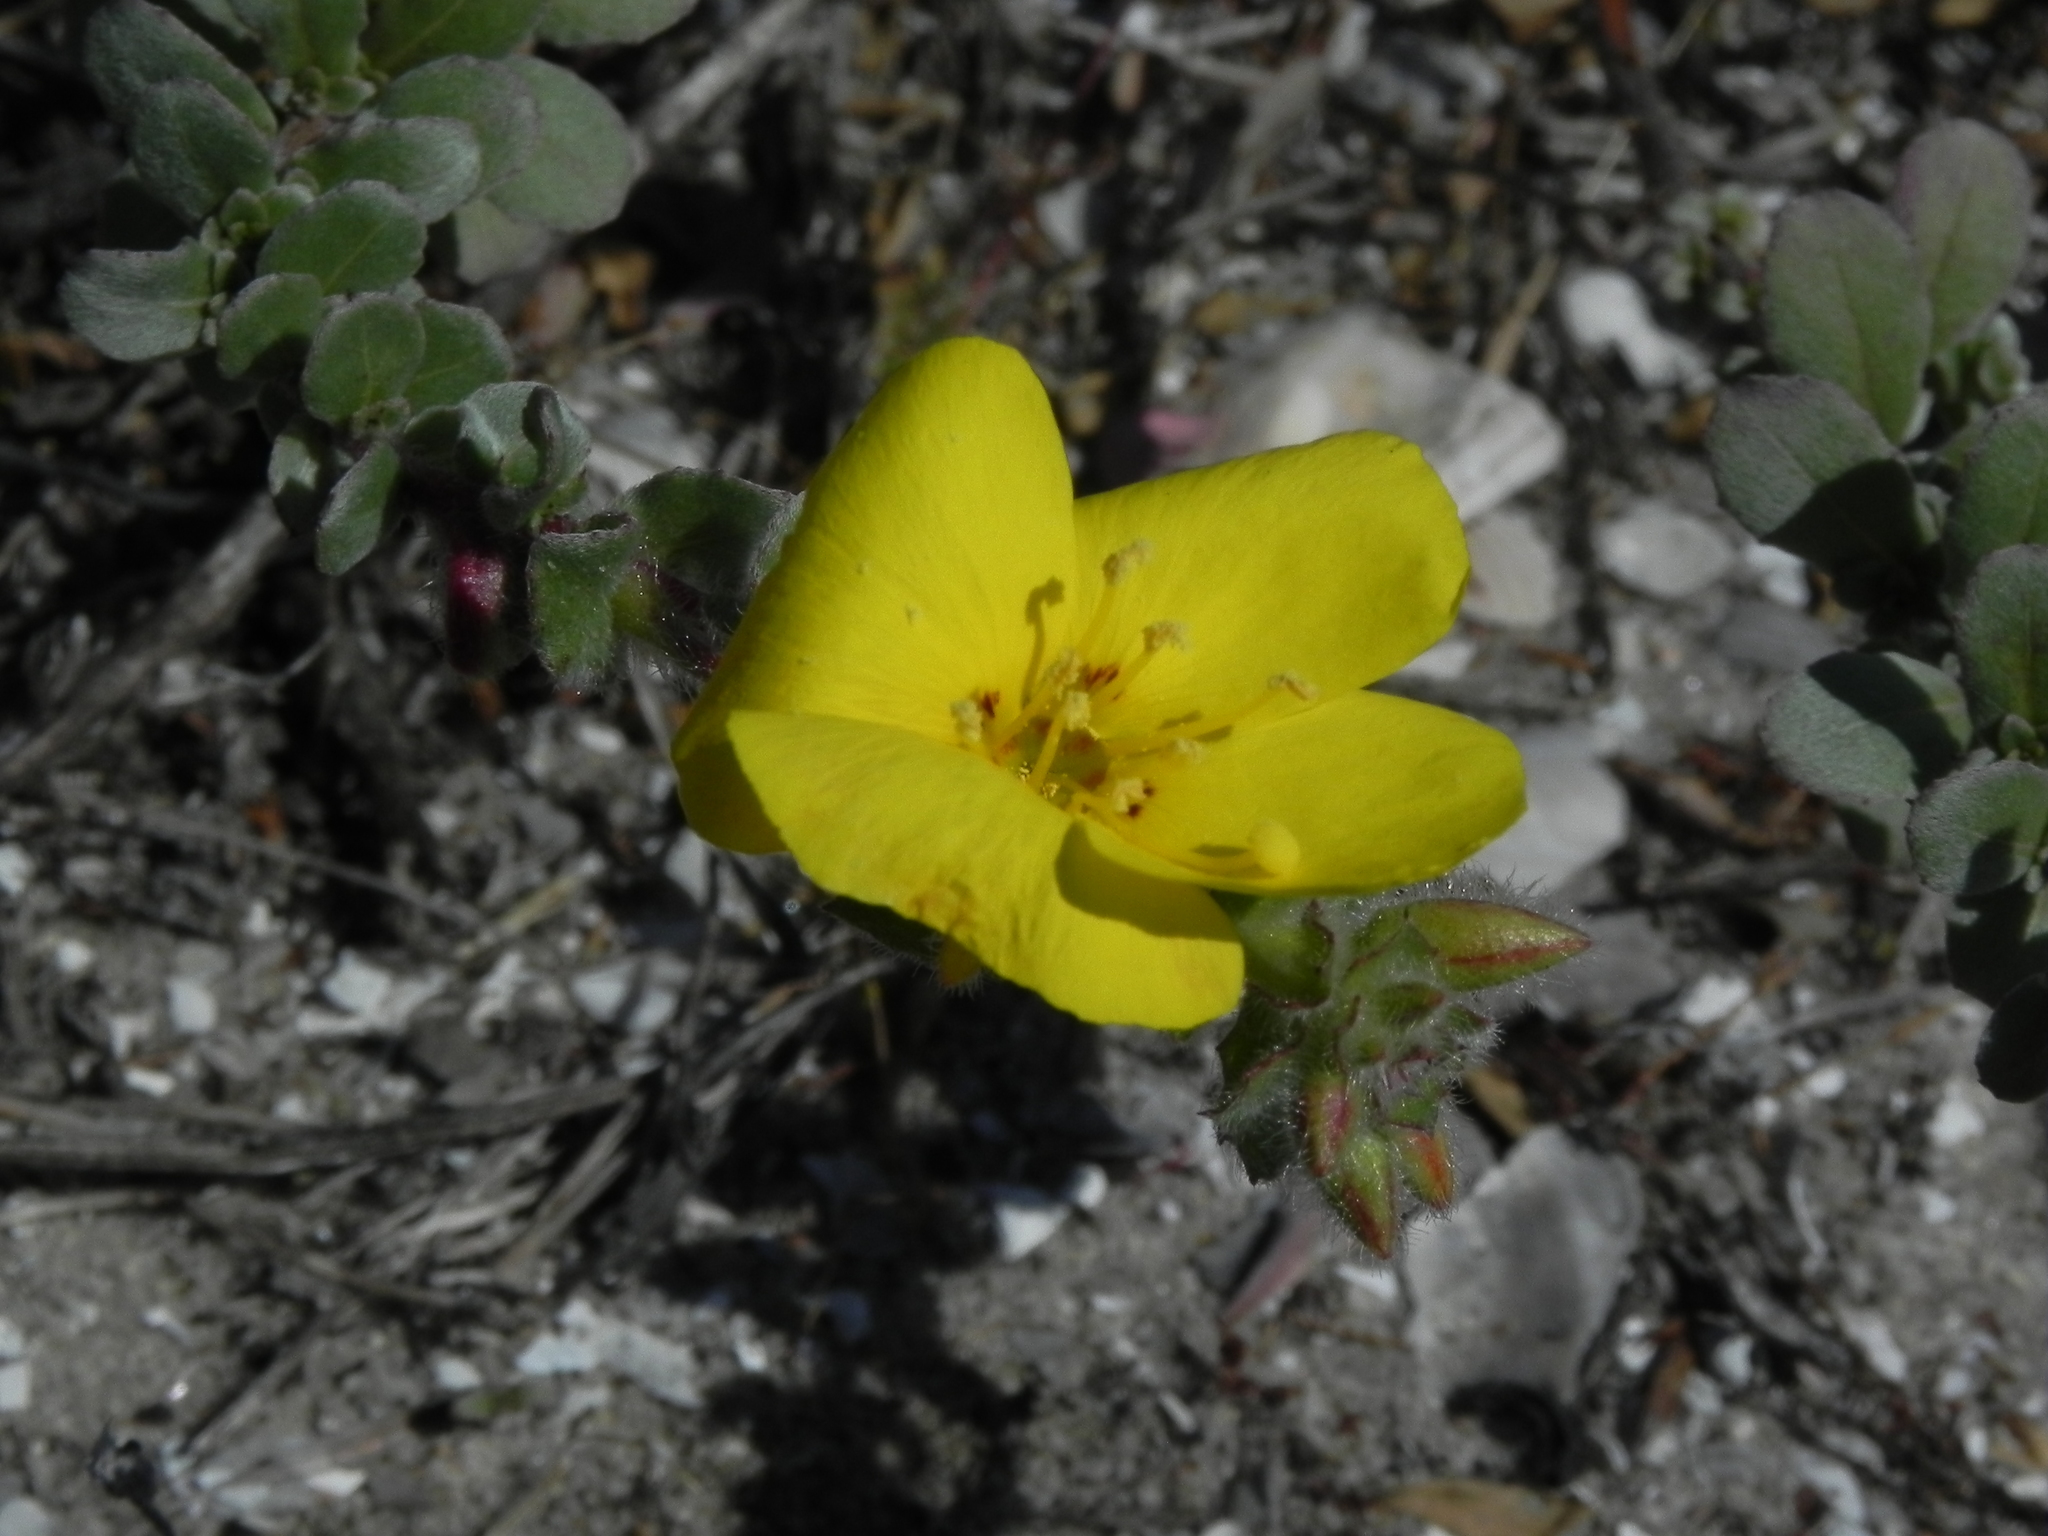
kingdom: Plantae
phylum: Tracheophyta
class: Magnoliopsida
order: Myrtales
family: Onagraceae
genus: Camissoniopsis
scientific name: Camissoniopsis cheiranthifolia
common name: Beach suncup
